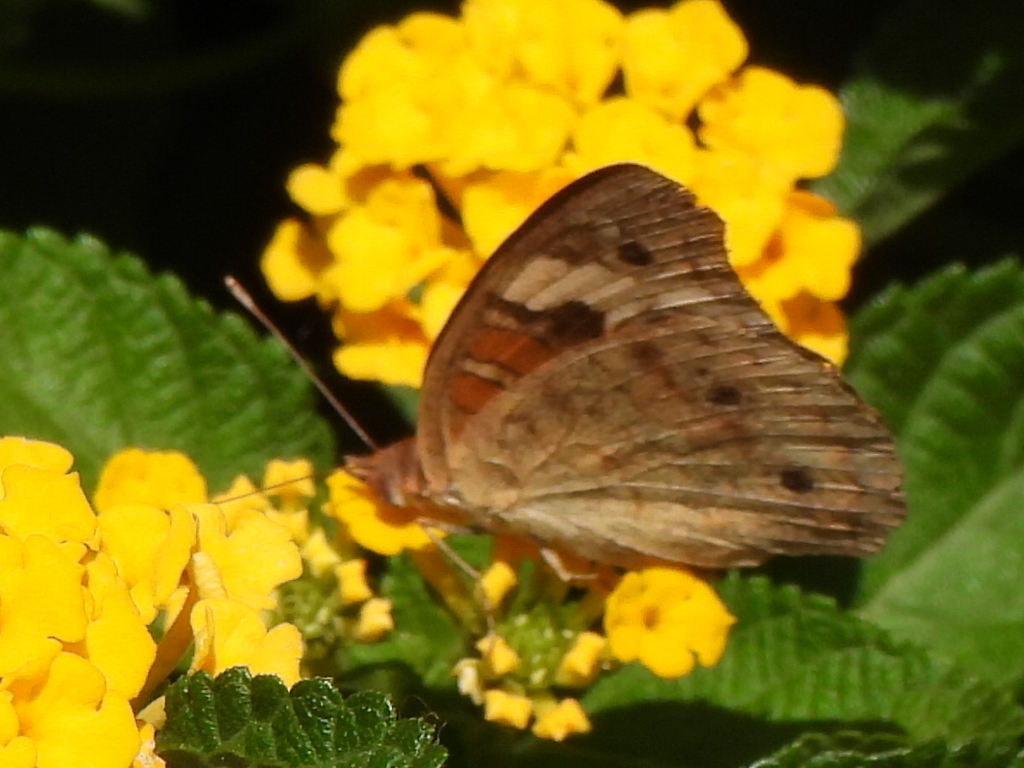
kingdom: Animalia
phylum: Arthropoda
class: Insecta
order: Lepidoptera
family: Nymphalidae
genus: Junonia
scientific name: Junonia coenia
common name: Common buckeye
